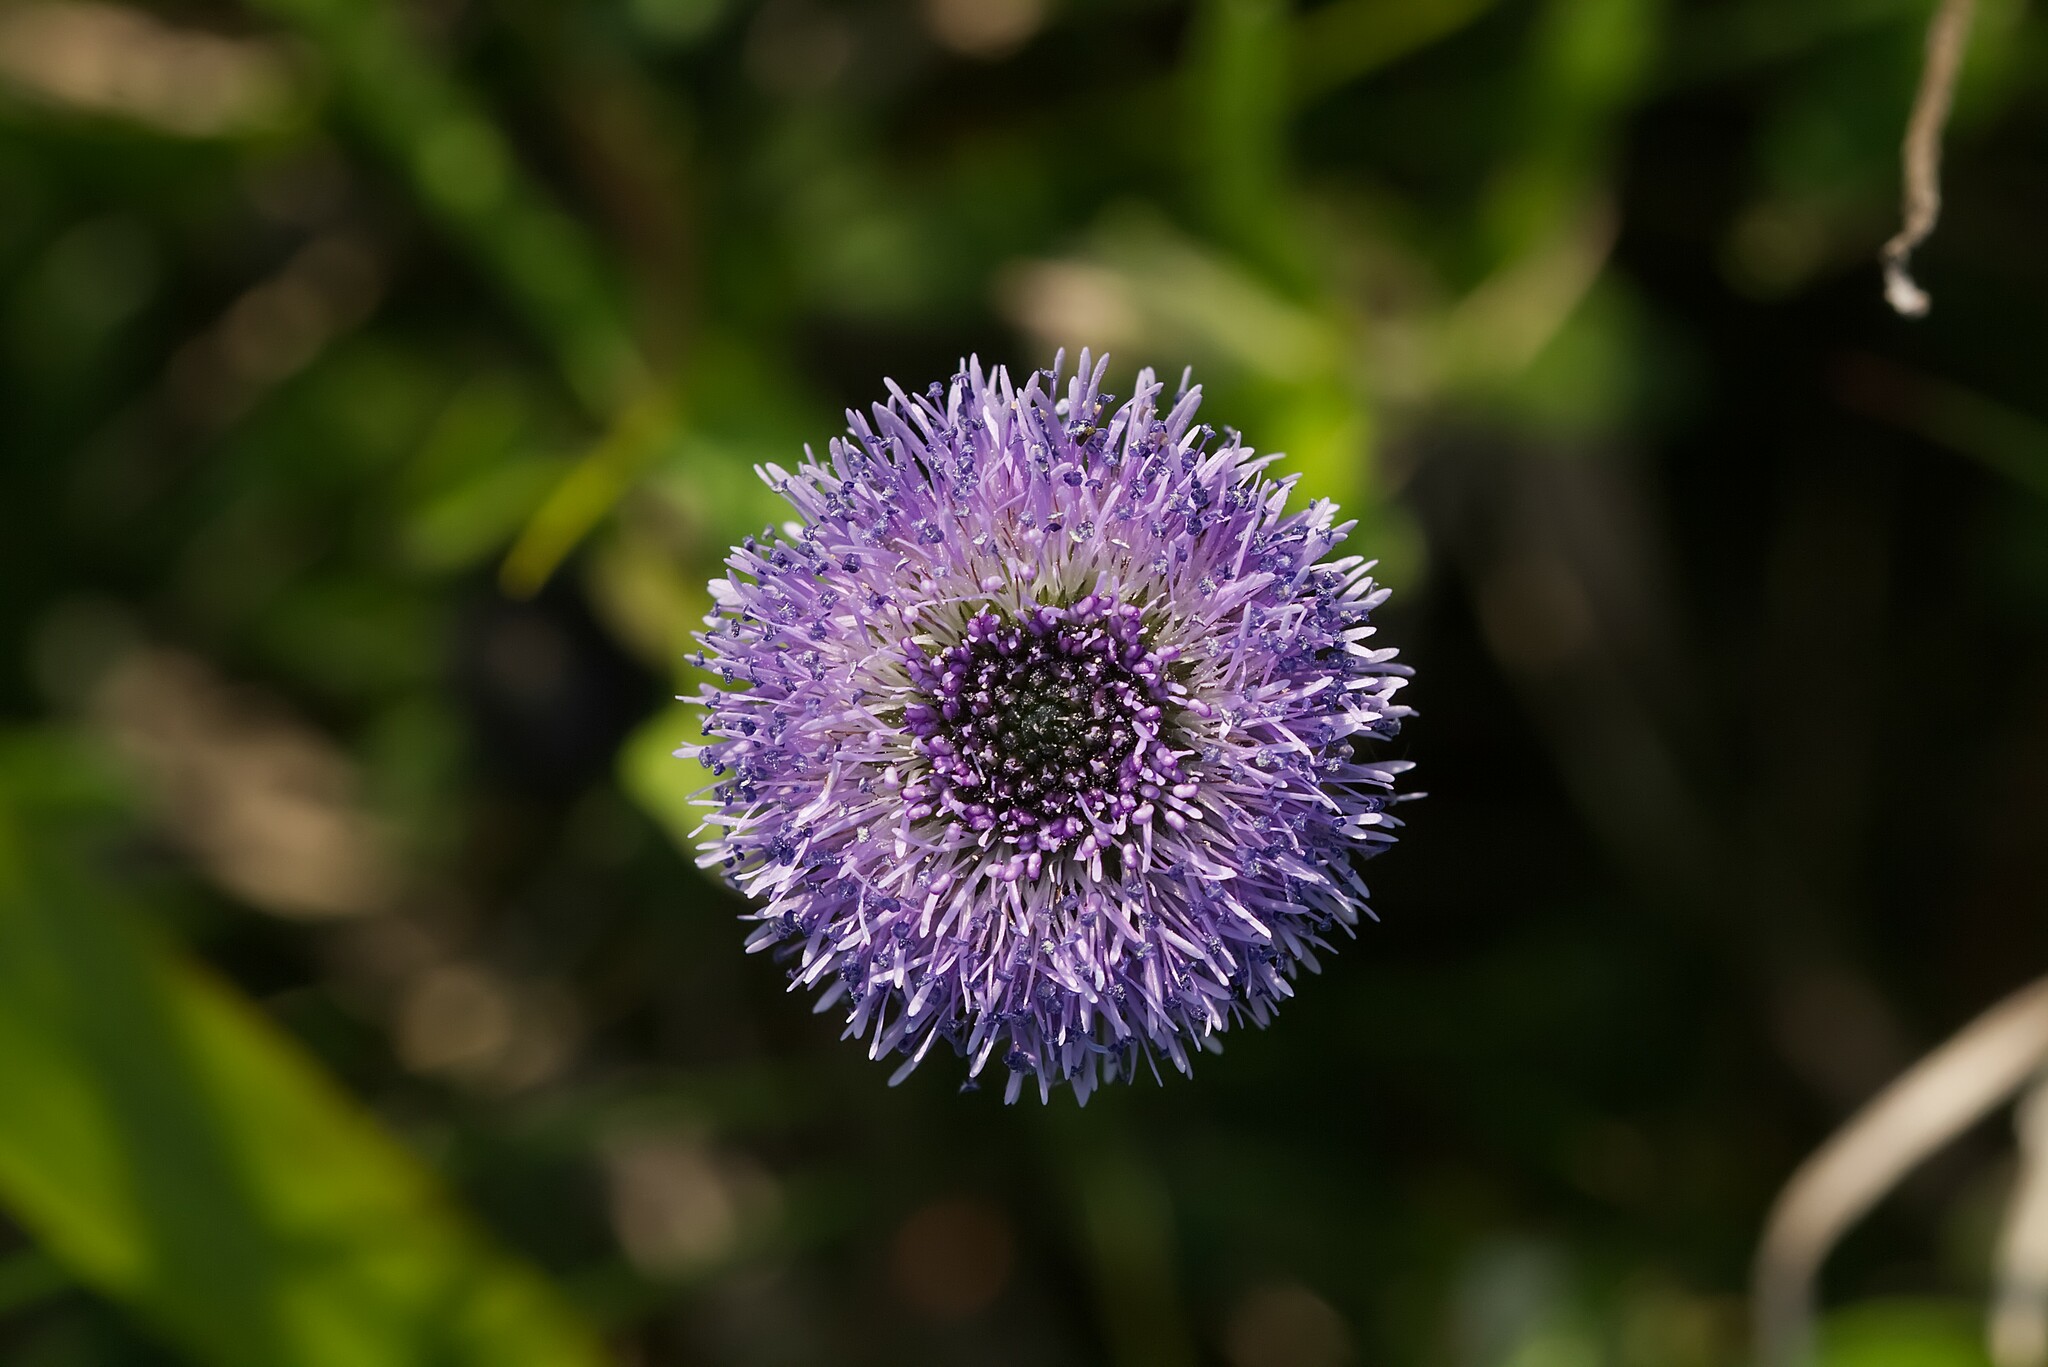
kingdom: Plantae
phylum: Tracheophyta
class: Magnoliopsida
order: Lamiales
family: Plantaginaceae
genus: Globularia
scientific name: Globularia bisnagarica
